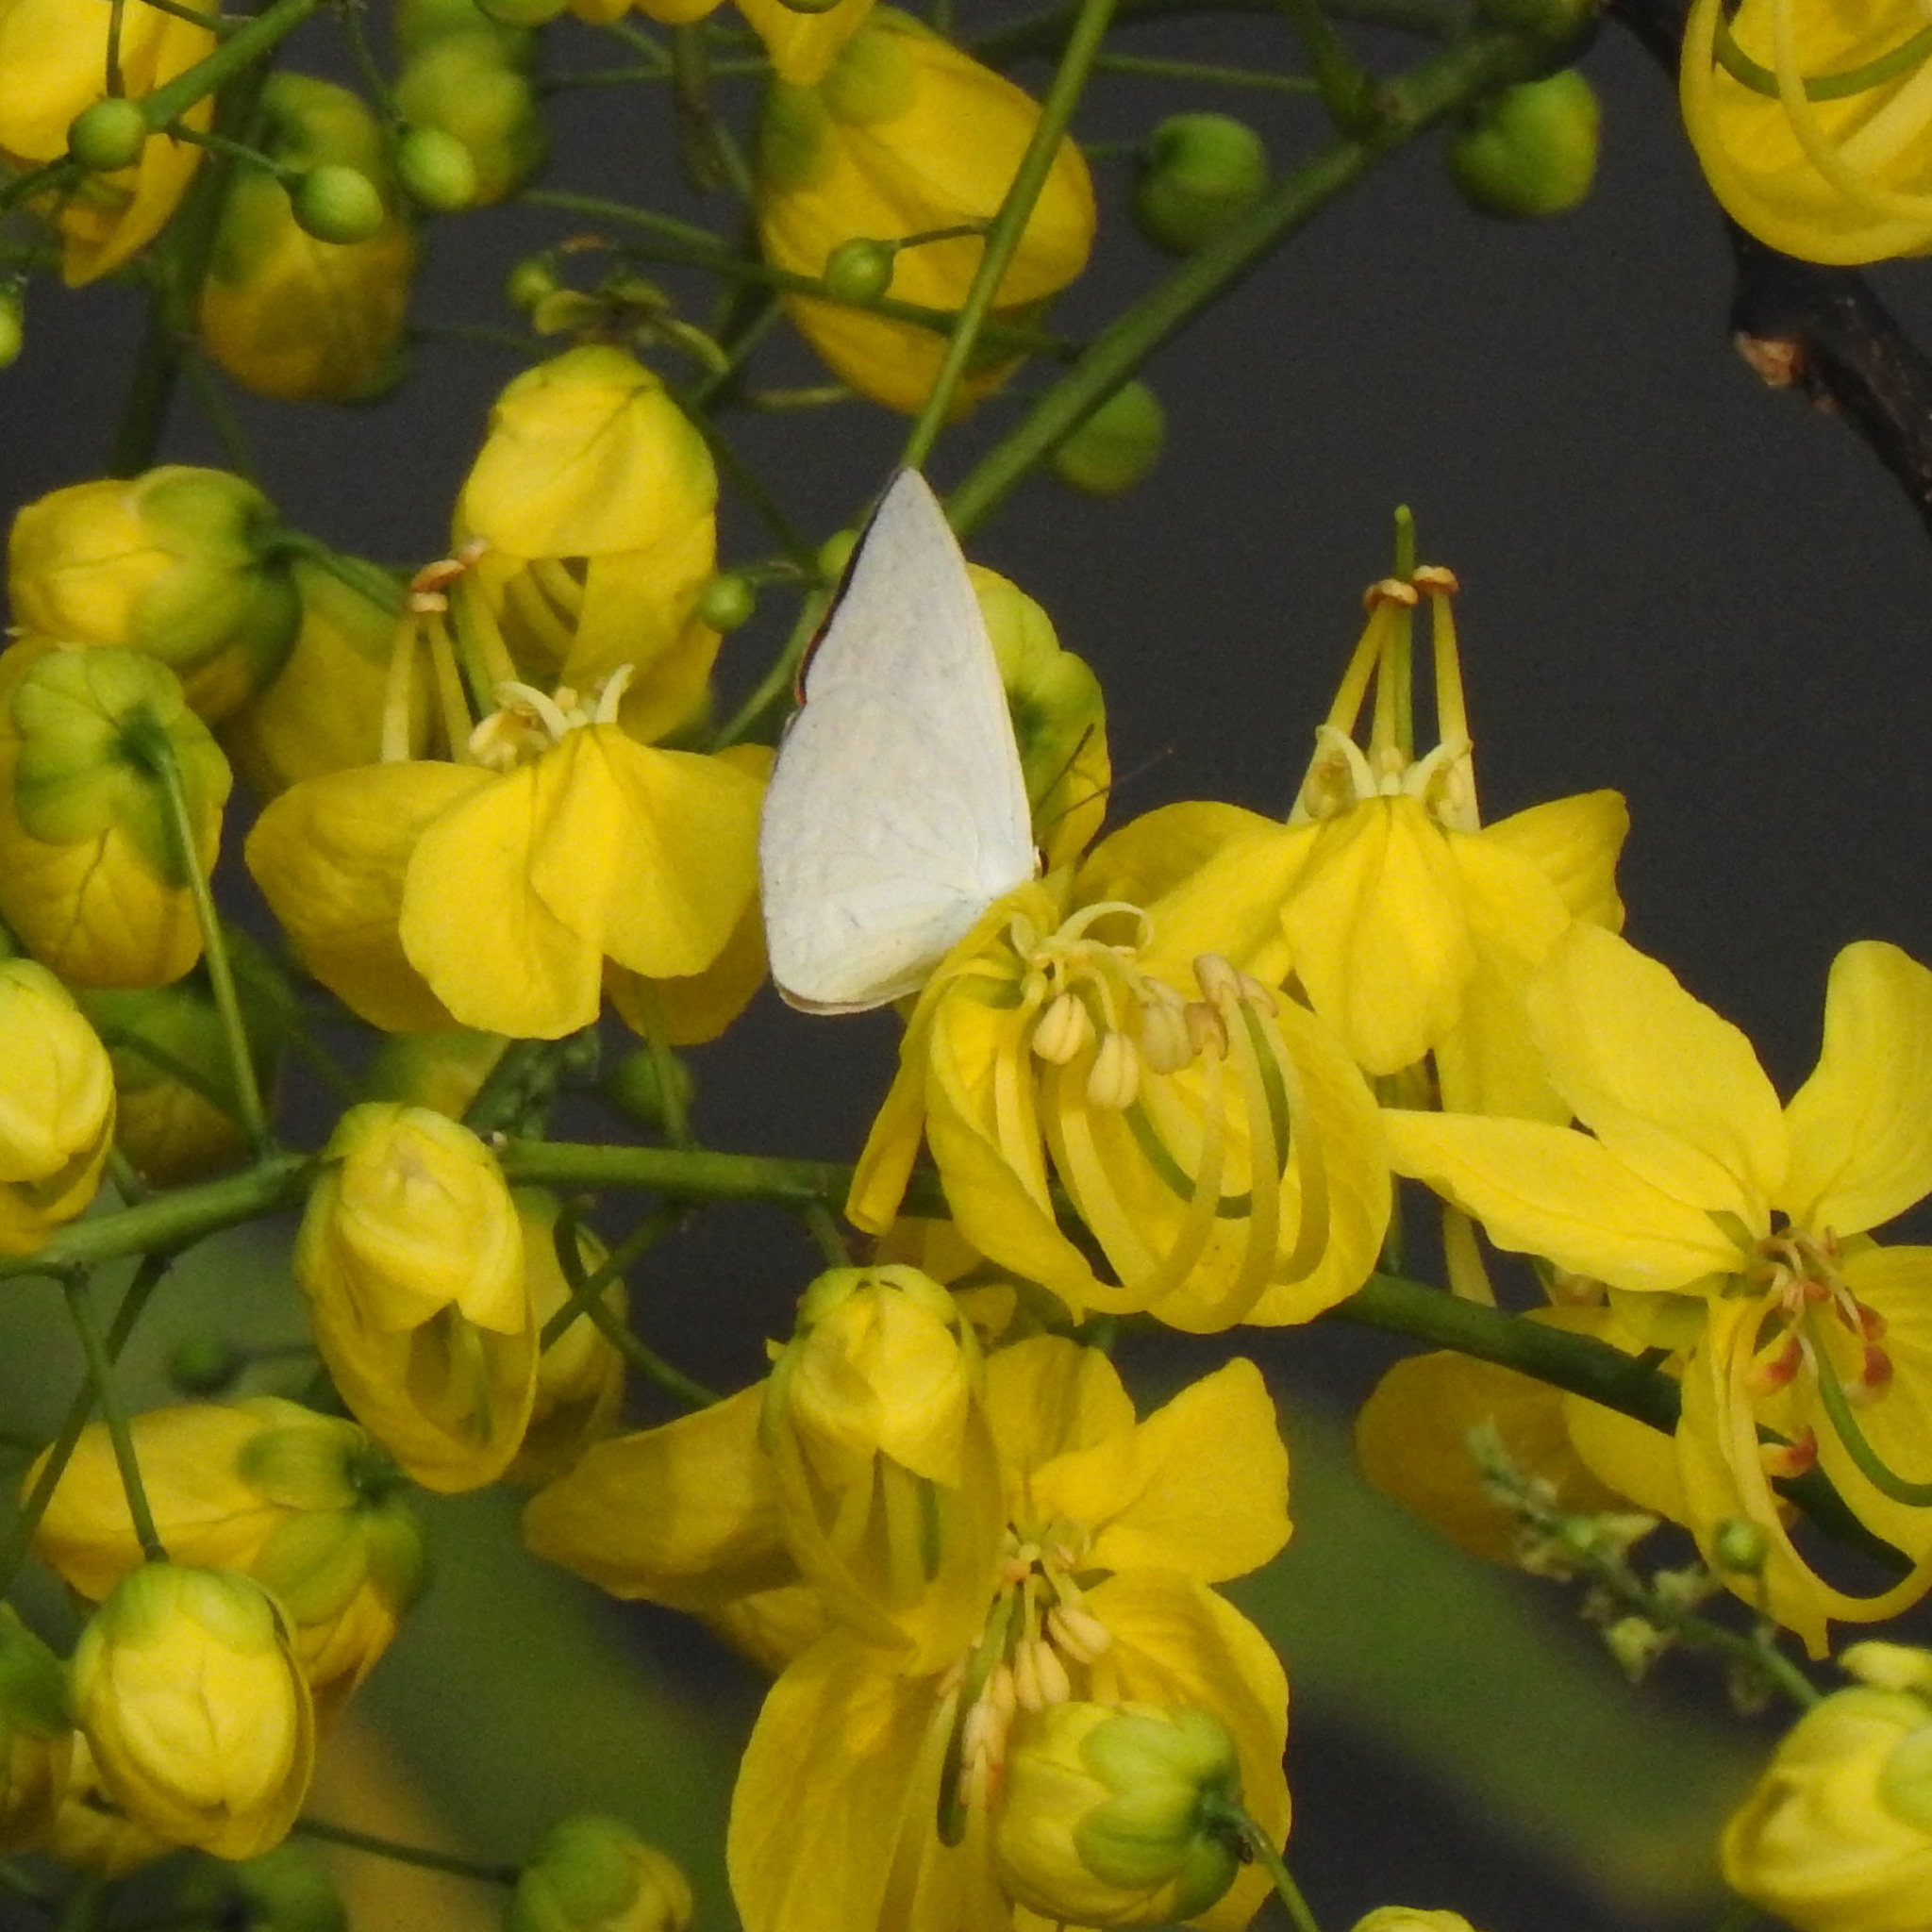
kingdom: Animalia
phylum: Arthropoda
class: Insecta
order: Lepidoptera
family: Lycaenidae
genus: Curetis
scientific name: Curetis thetis
